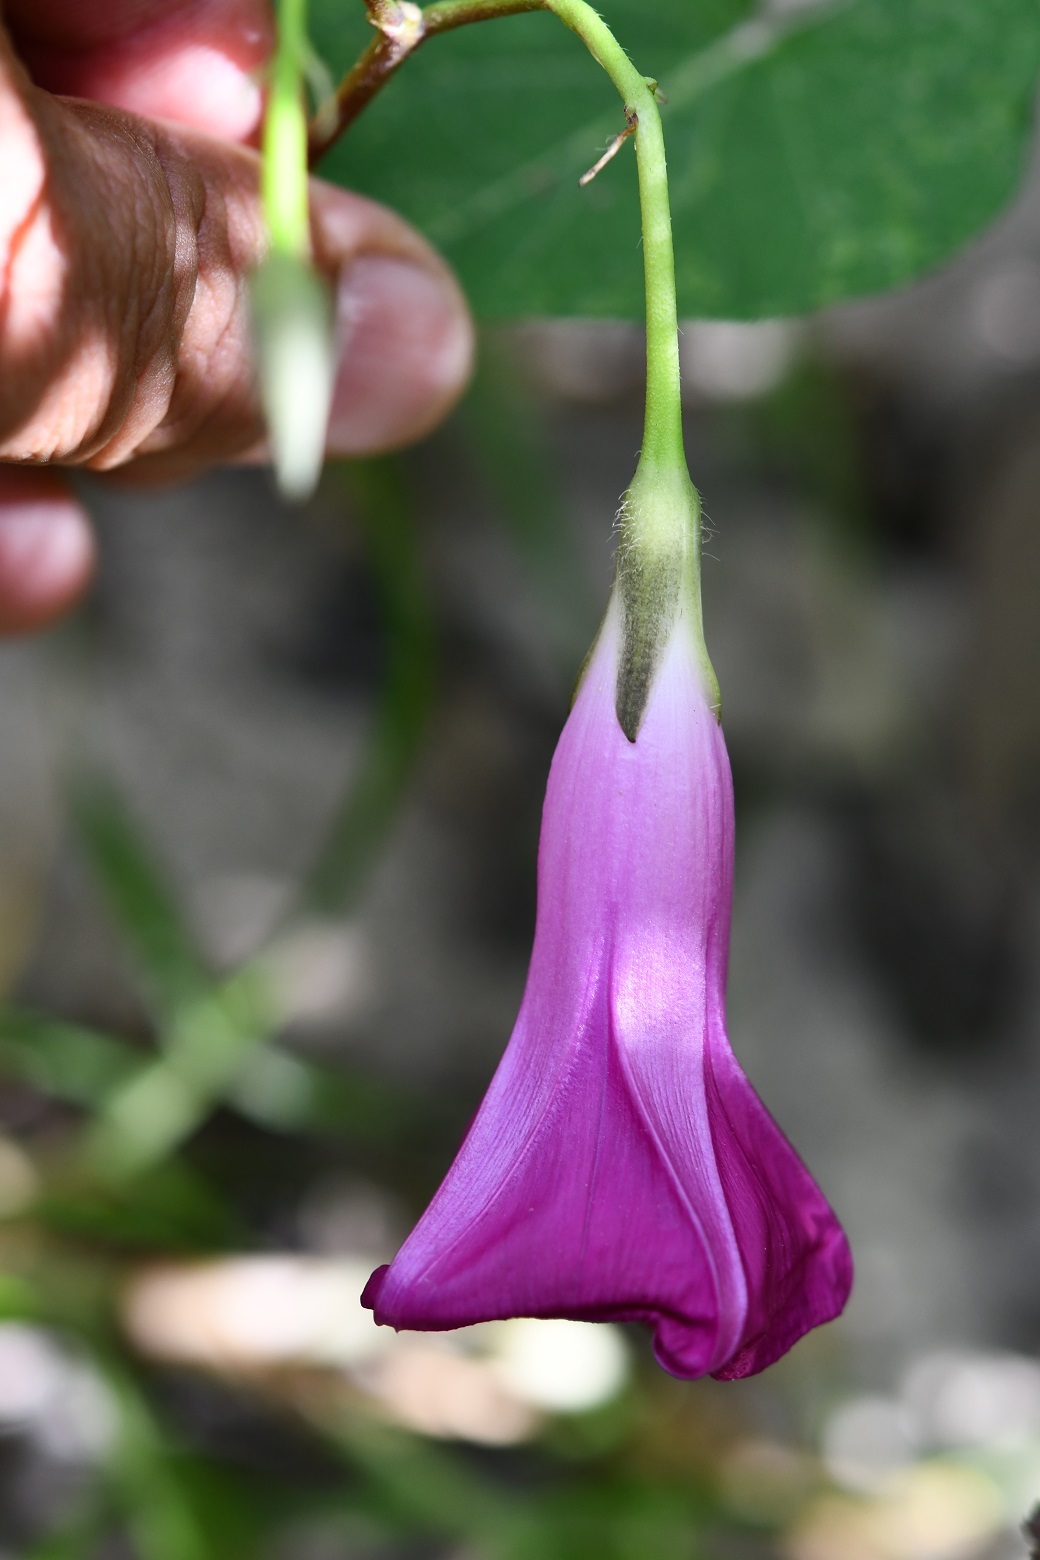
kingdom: Plantae
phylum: Tracheophyta
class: Magnoliopsida
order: Solanales
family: Convolvulaceae
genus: Ipomoea
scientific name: Ipomoea orizabensis
